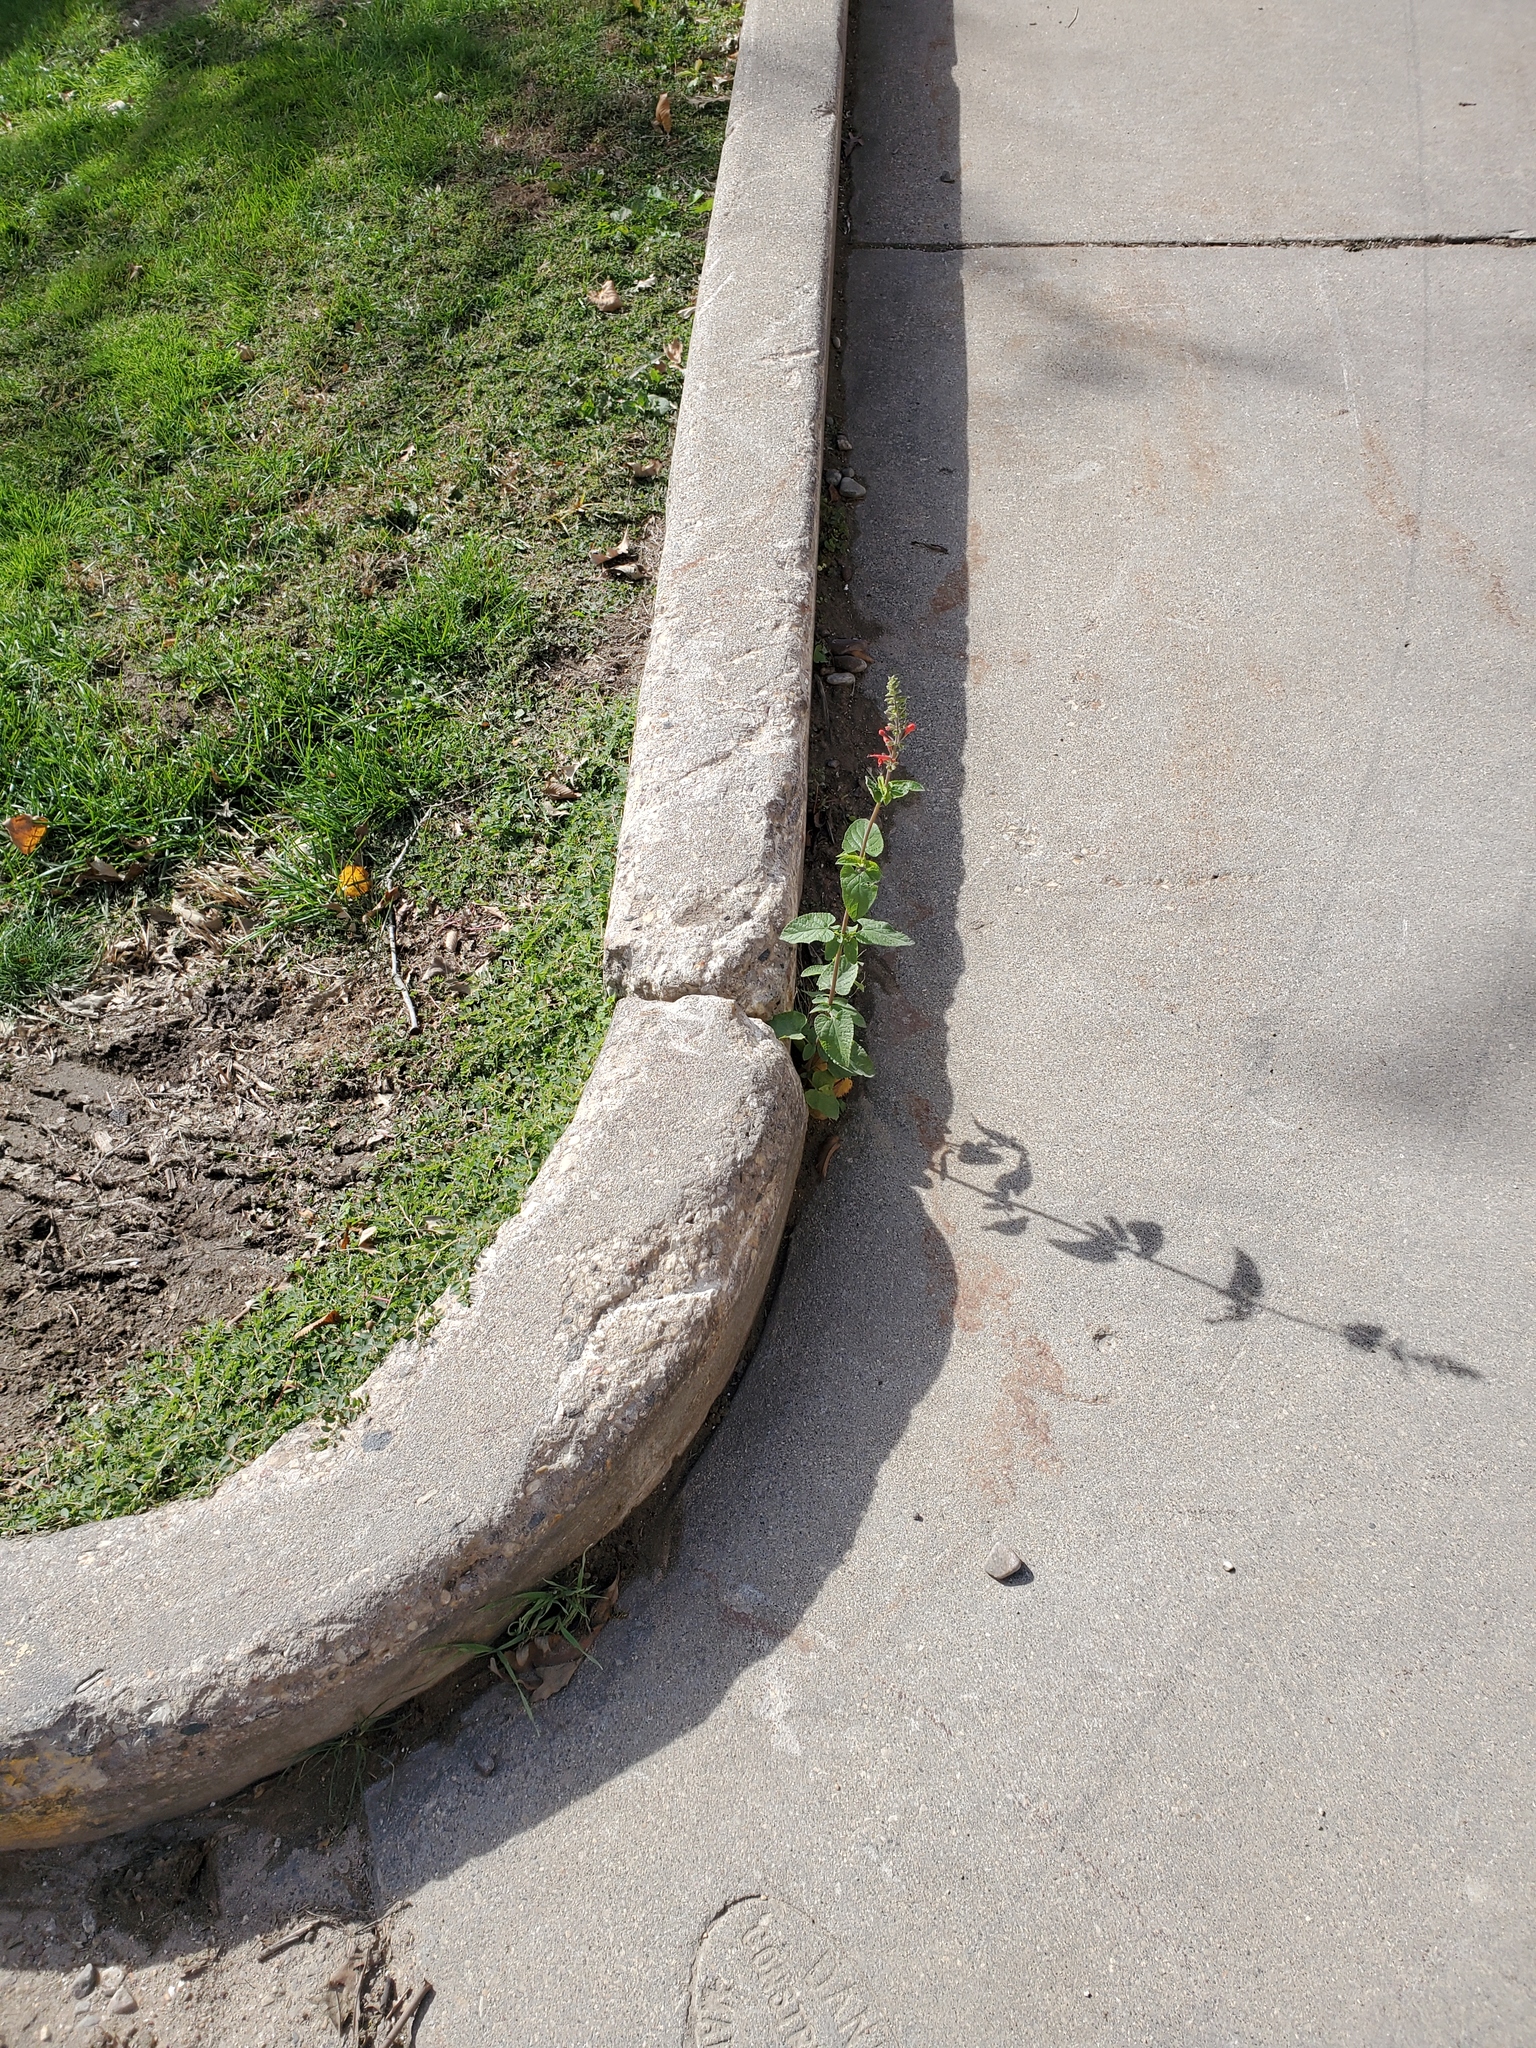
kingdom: Plantae
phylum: Tracheophyta
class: Magnoliopsida
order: Lamiales
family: Lamiaceae
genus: Salvia
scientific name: Salvia coccinea
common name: Blood sage
